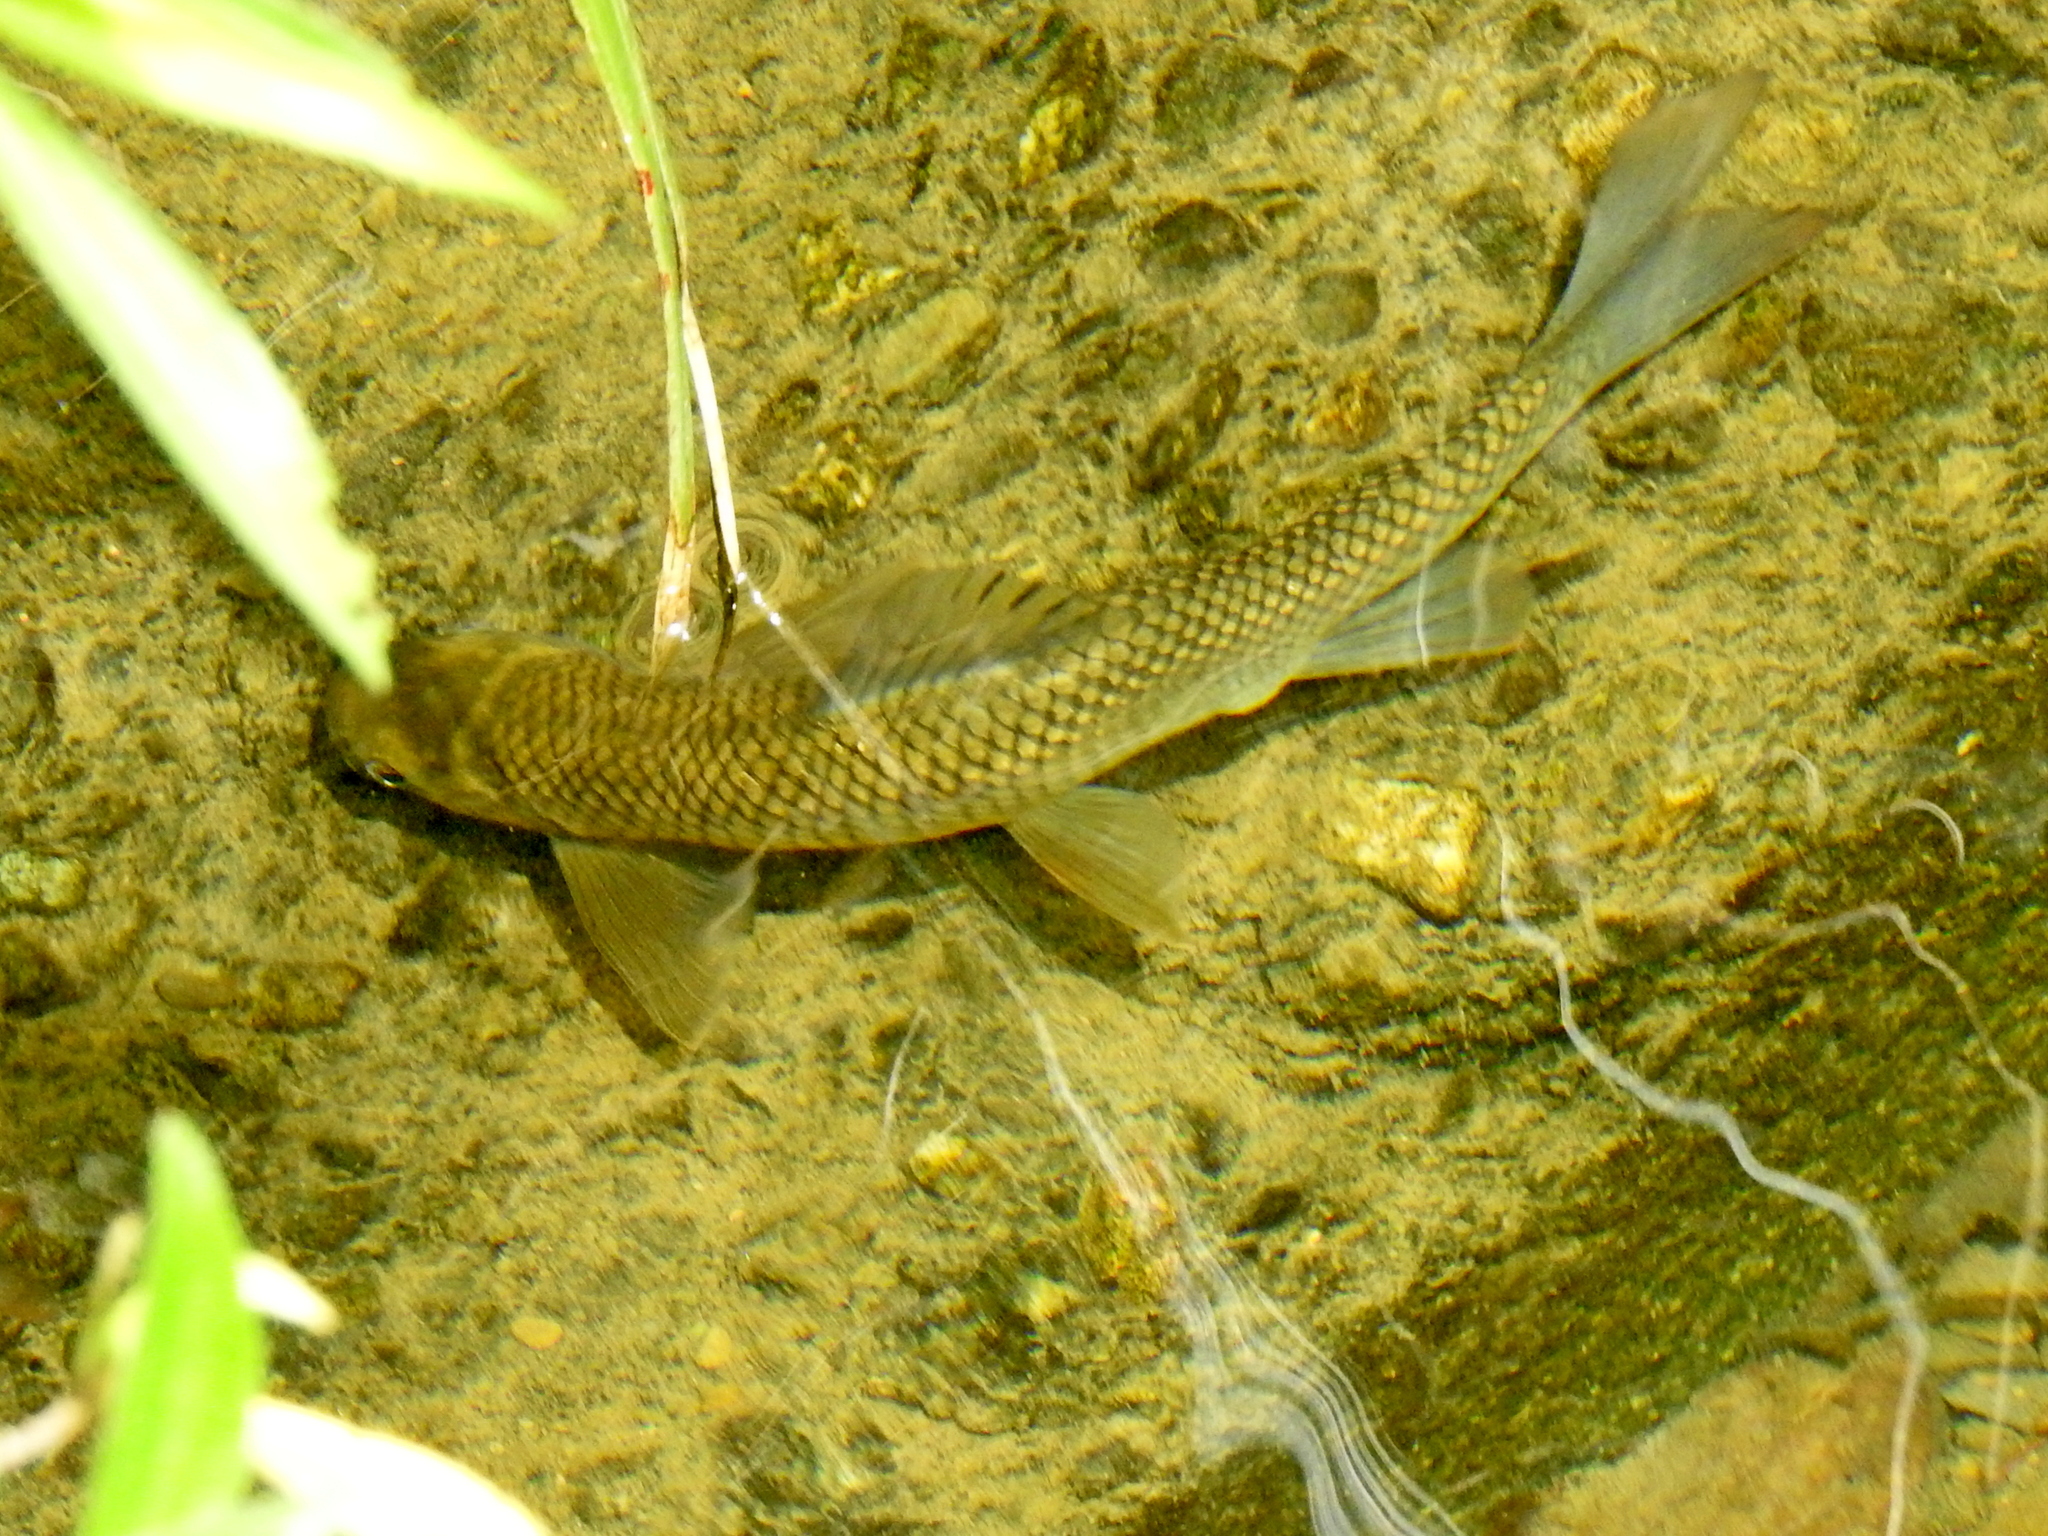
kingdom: Animalia
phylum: Chordata
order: Cypriniformes
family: Cyprinidae
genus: Onychostoma
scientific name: Onychostoma barbatulum
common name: Taiwan shoveljaw carp
